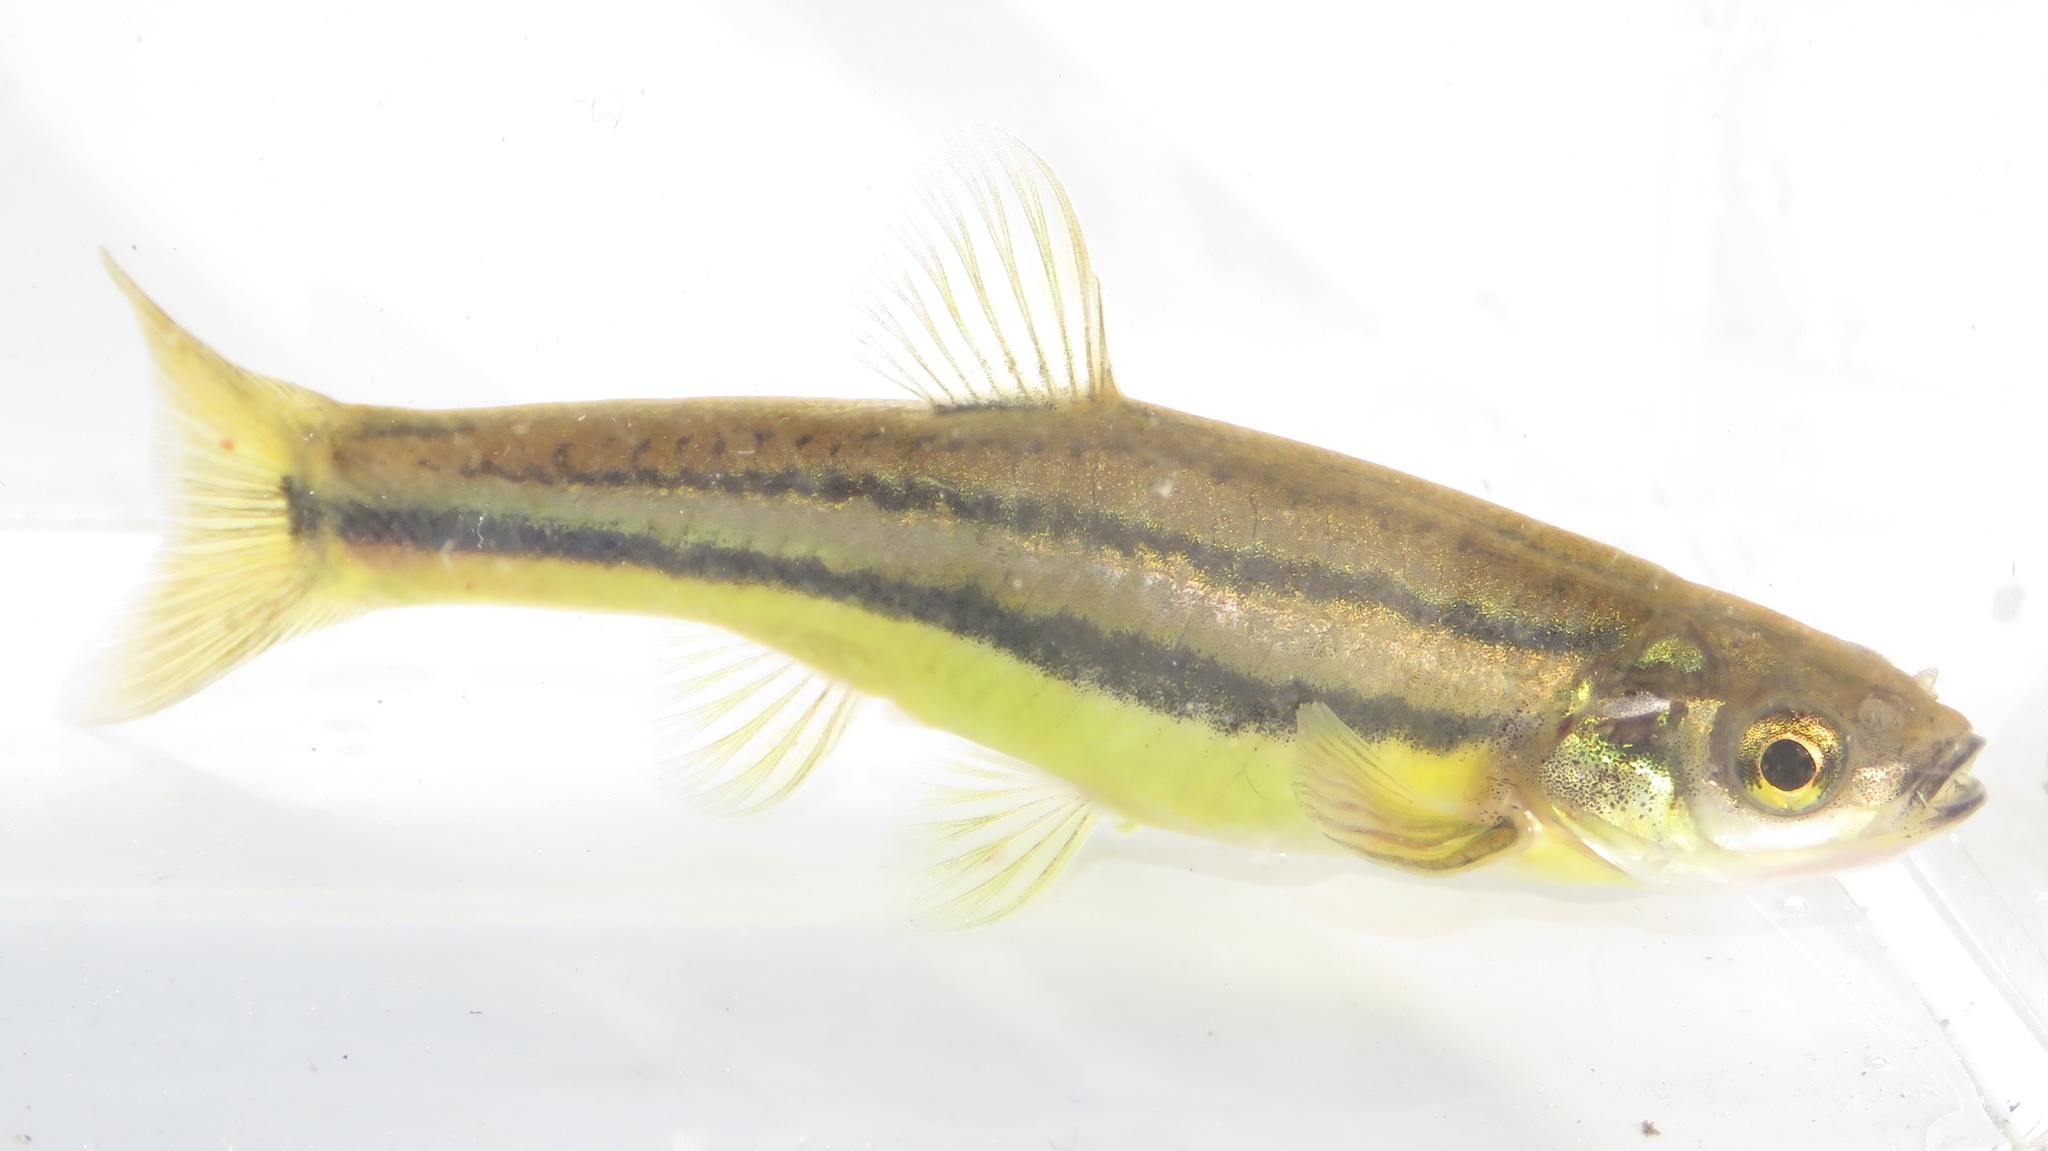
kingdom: Animalia
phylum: Chordata
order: Cypriniformes
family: Cyprinidae
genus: Chrosomus
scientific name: Chrosomus eos
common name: Northern redbelly dace
